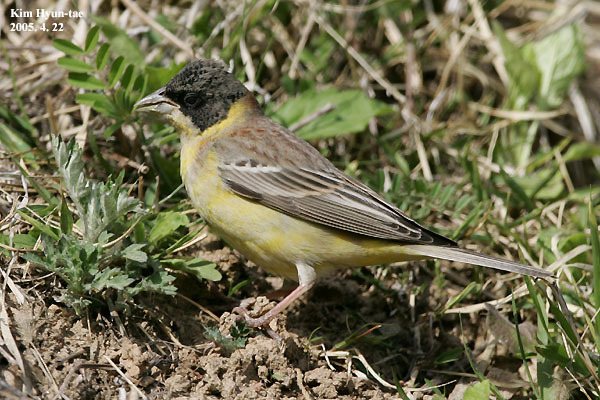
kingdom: Animalia
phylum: Chordata
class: Aves
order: Passeriformes
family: Emberizidae
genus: Emberiza
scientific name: Emberiza melanocephala
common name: Black-headed bunting
